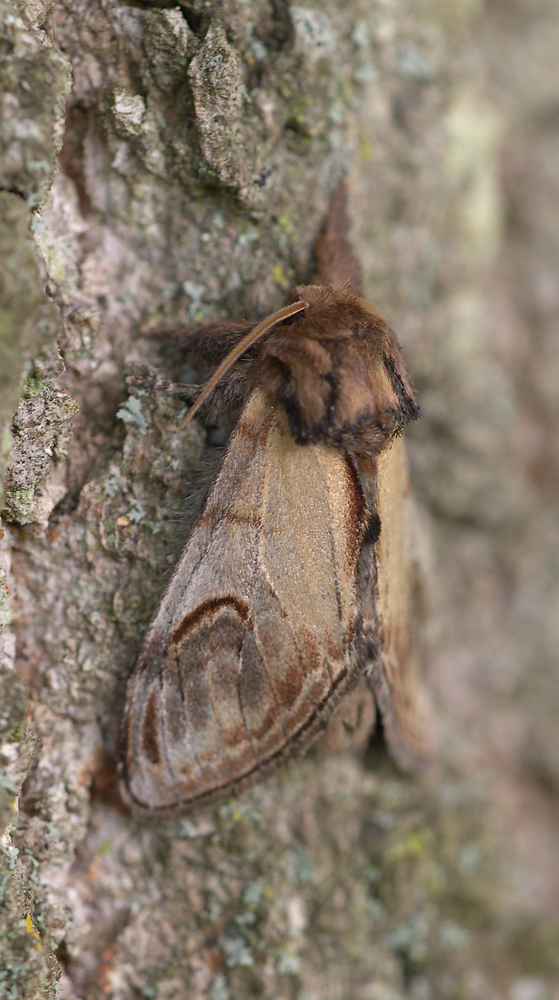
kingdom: Animalia
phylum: Arthropoda
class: Insecta
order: Lepidoptera
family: Notodontidae
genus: Notodonta
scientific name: Notodonta ziczac
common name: Pebble prominent
